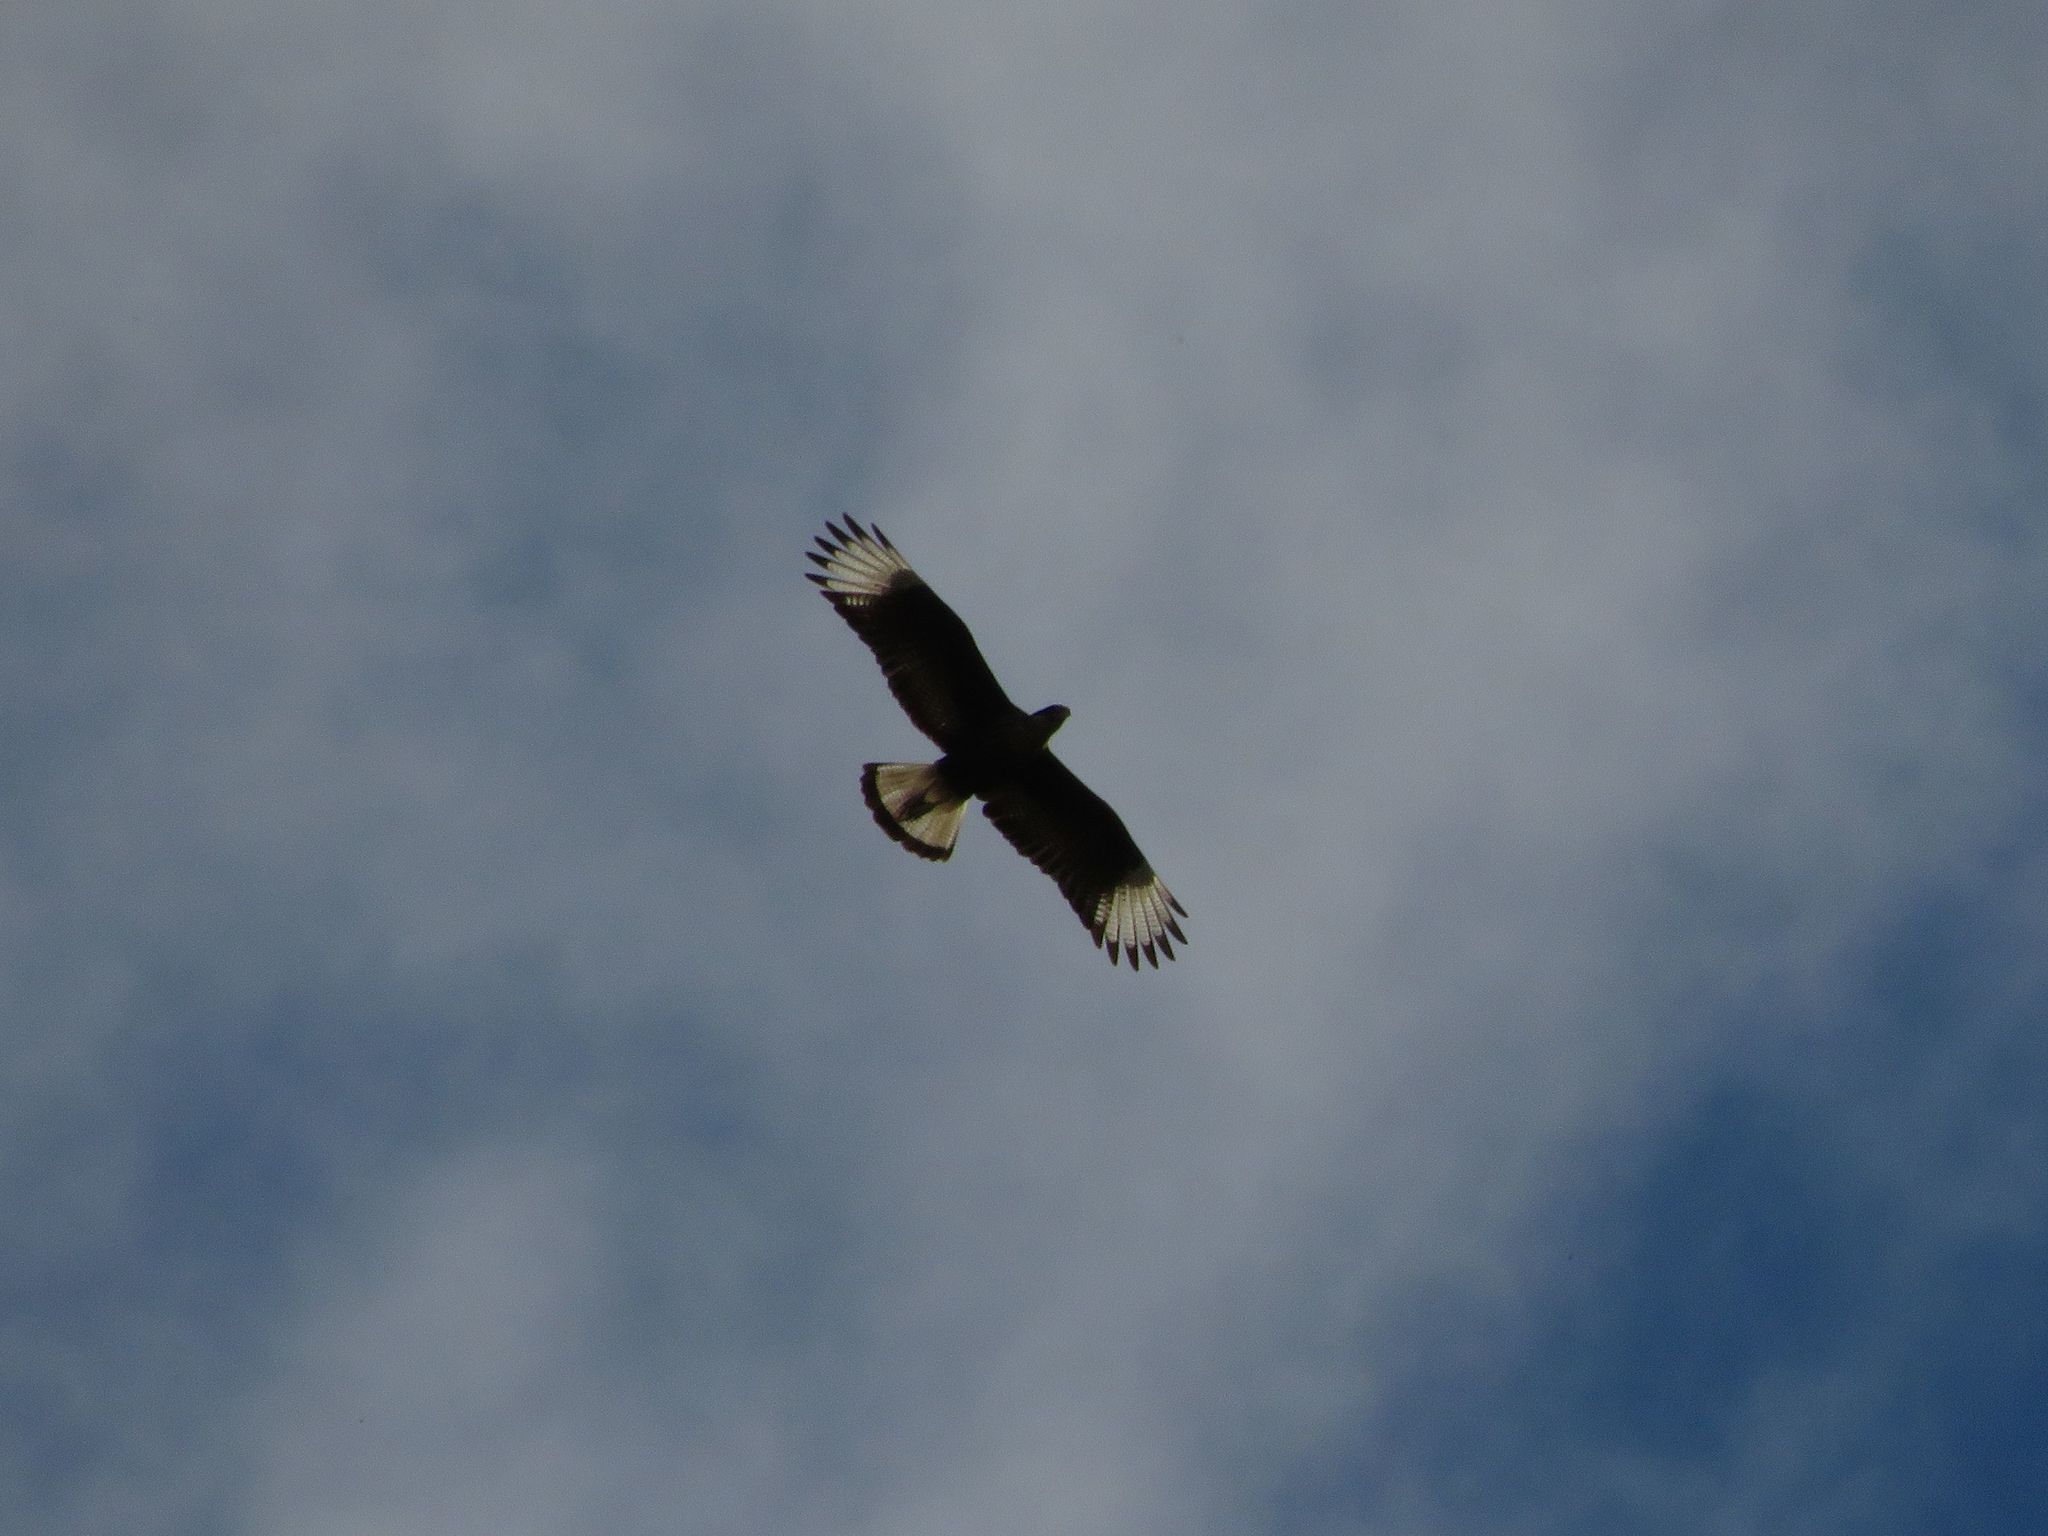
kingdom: Animalia
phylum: Chordata
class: Aves
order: Falconiformes
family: Falconidae
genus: Caracara
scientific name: Caracara plancus
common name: Southern caracara
